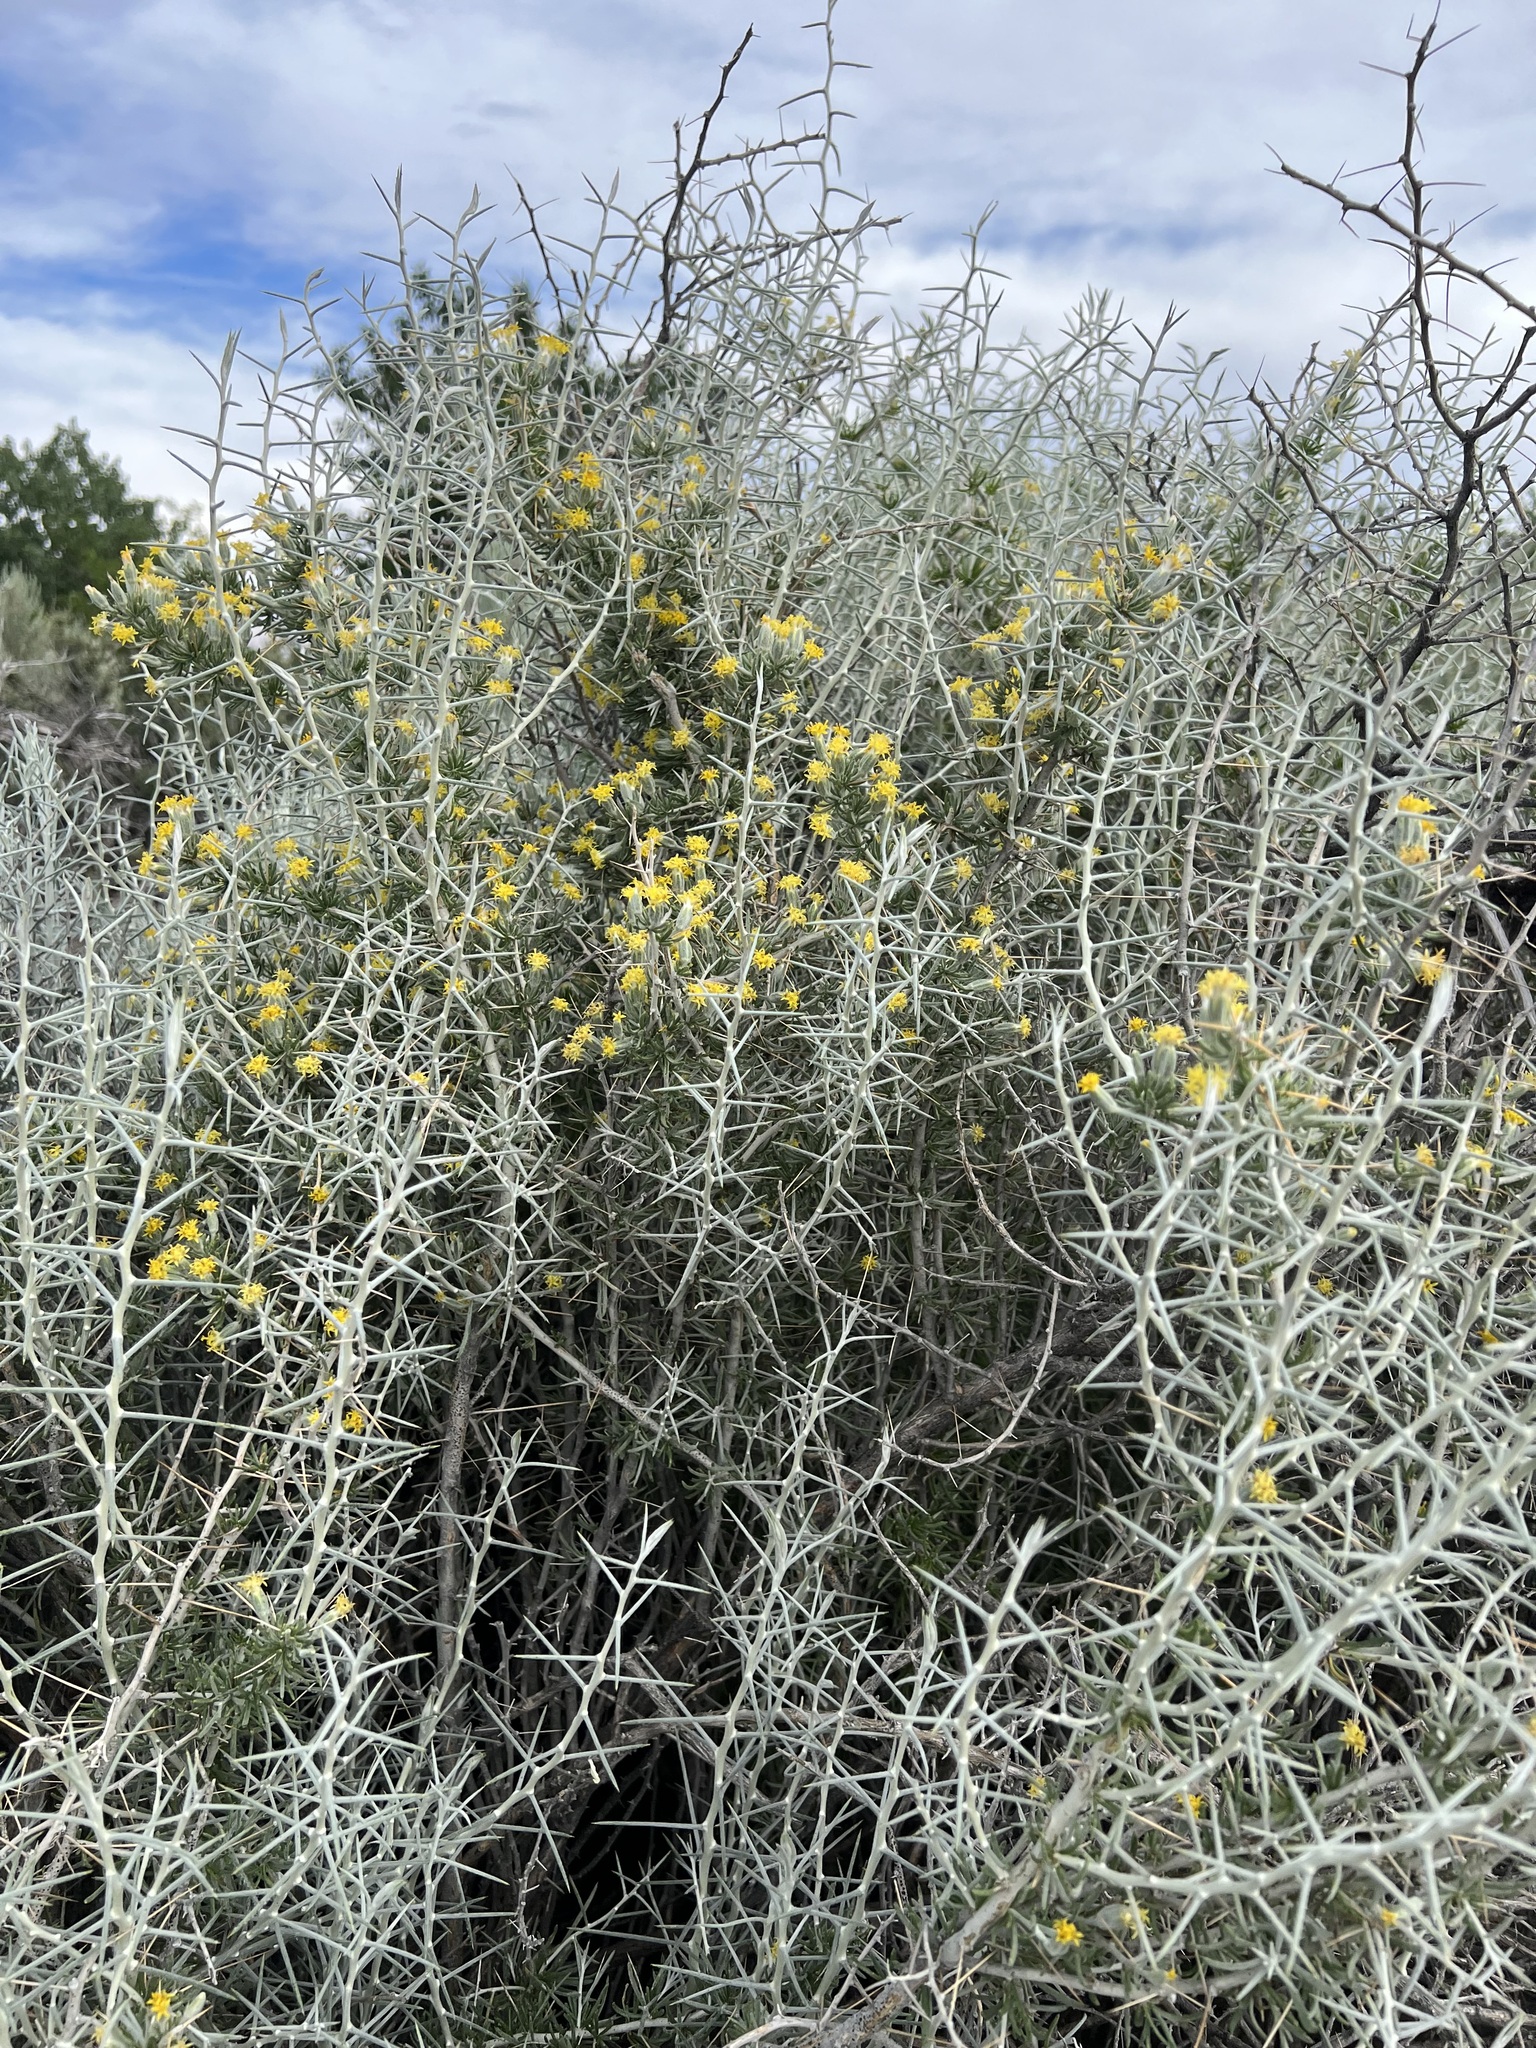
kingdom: Plantae
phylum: Tracheophyta
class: Magnoliopsida
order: Asterales
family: Asteraceae
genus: Tetradymia
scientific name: Tetradymia axillaris
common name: Long-spine horsebrush
